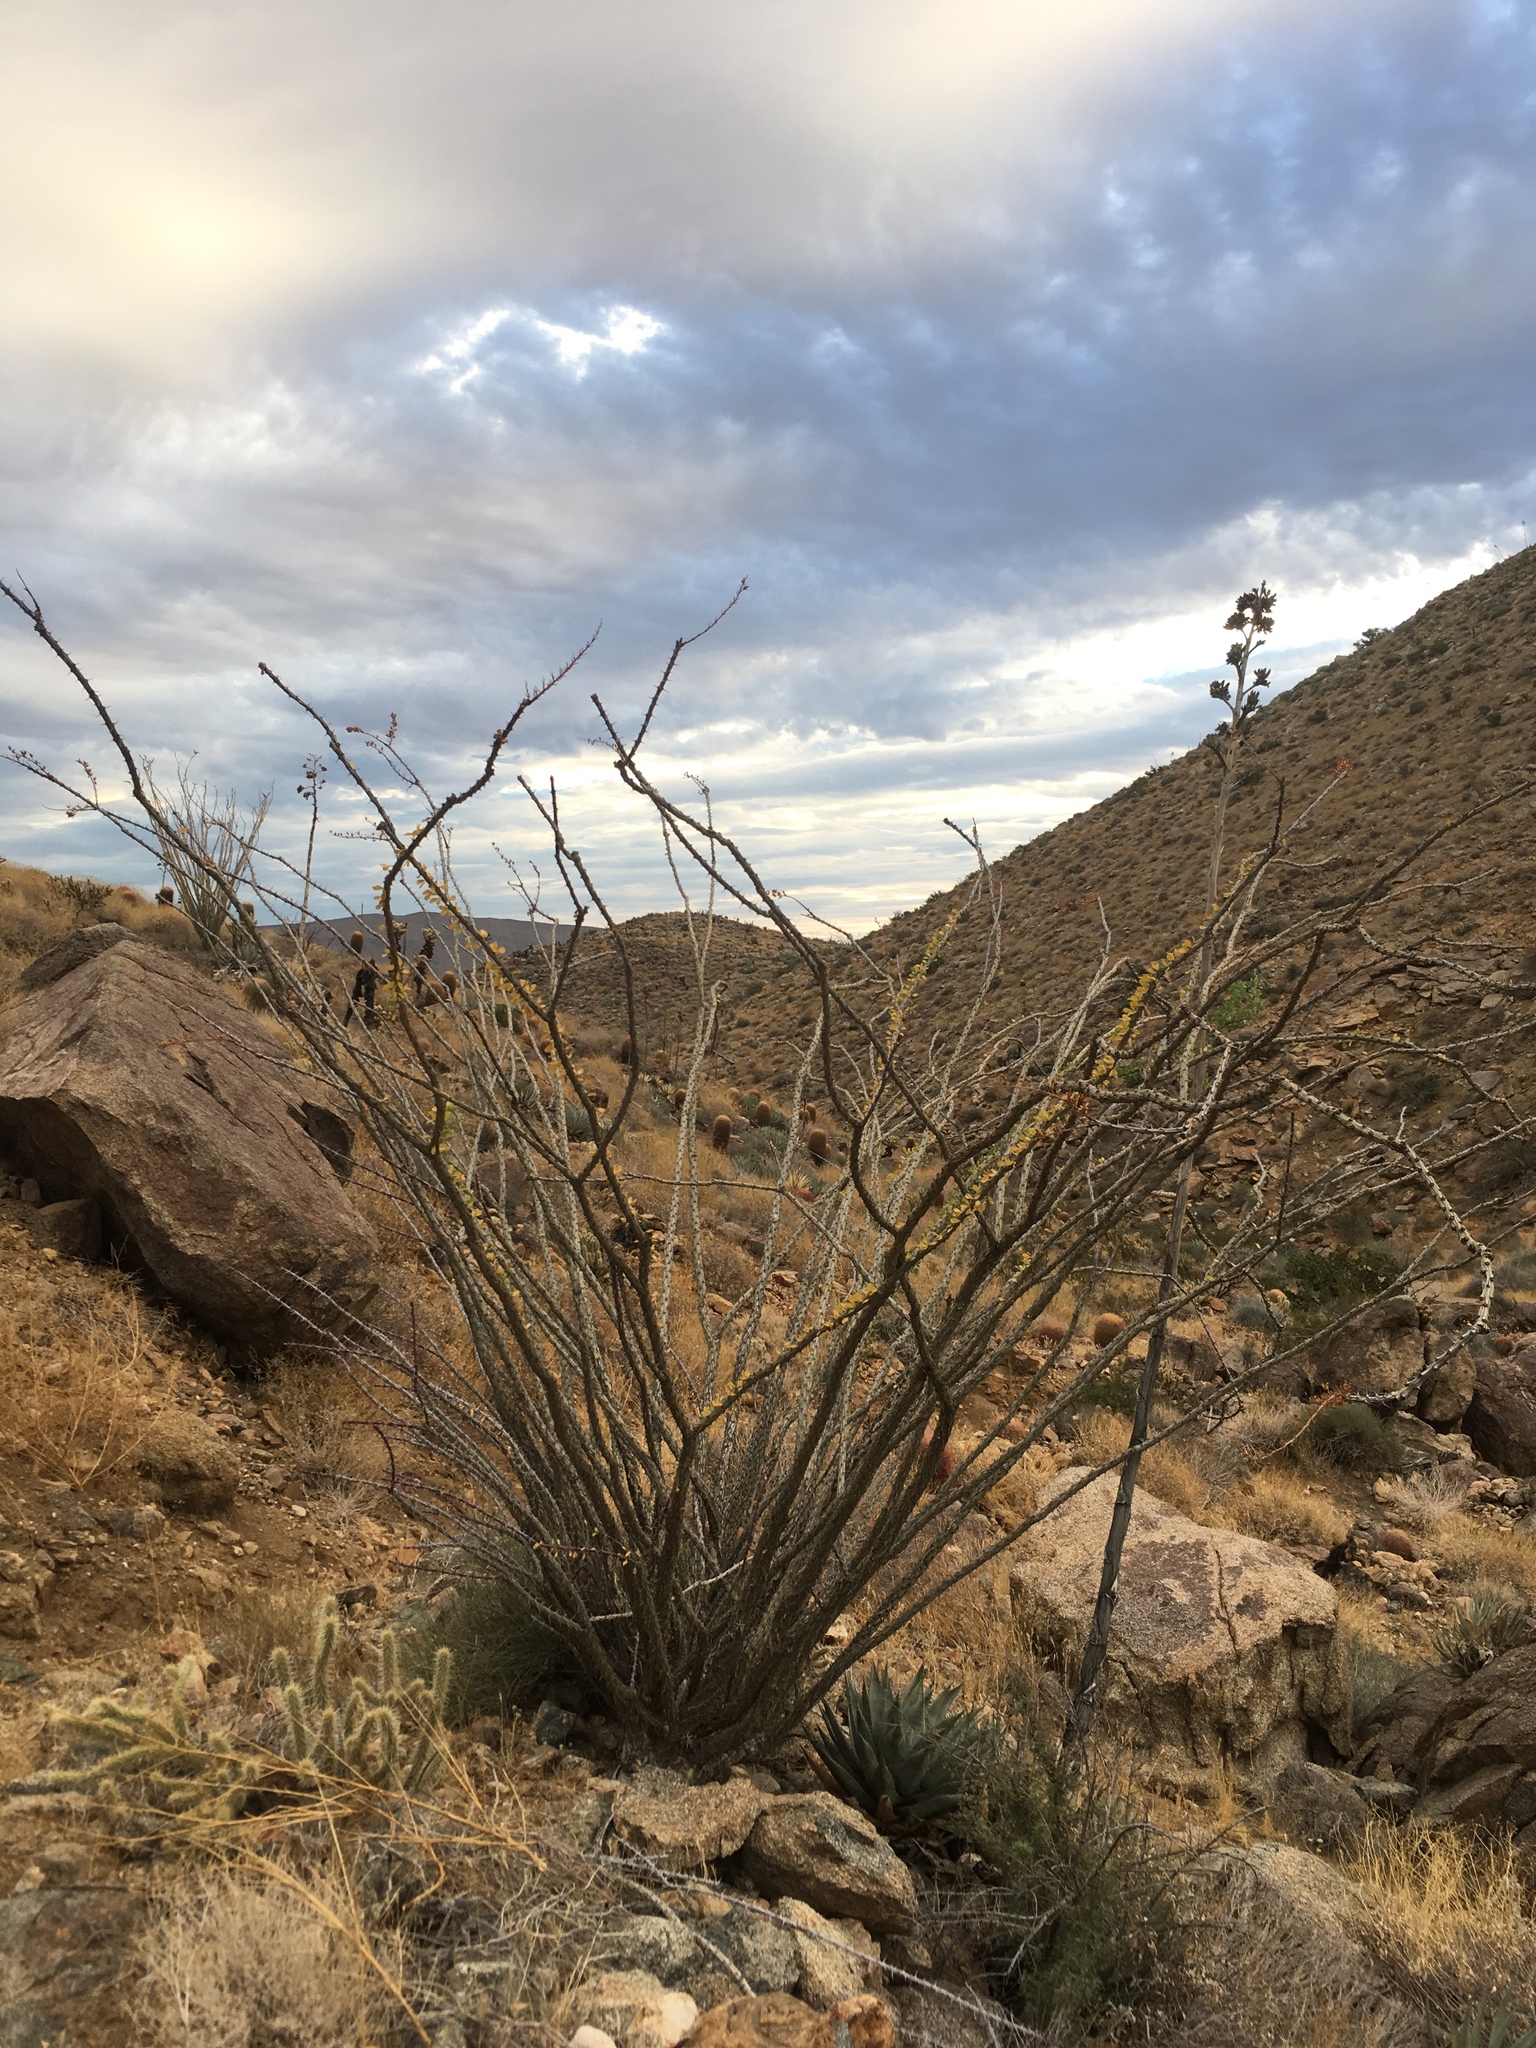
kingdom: Plantae
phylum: Tracheophyta
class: Magnoliopsida
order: Ericales
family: Fouquieriaceae
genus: Fouquieria
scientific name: Fouquieria splendens
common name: Vine-cactus
